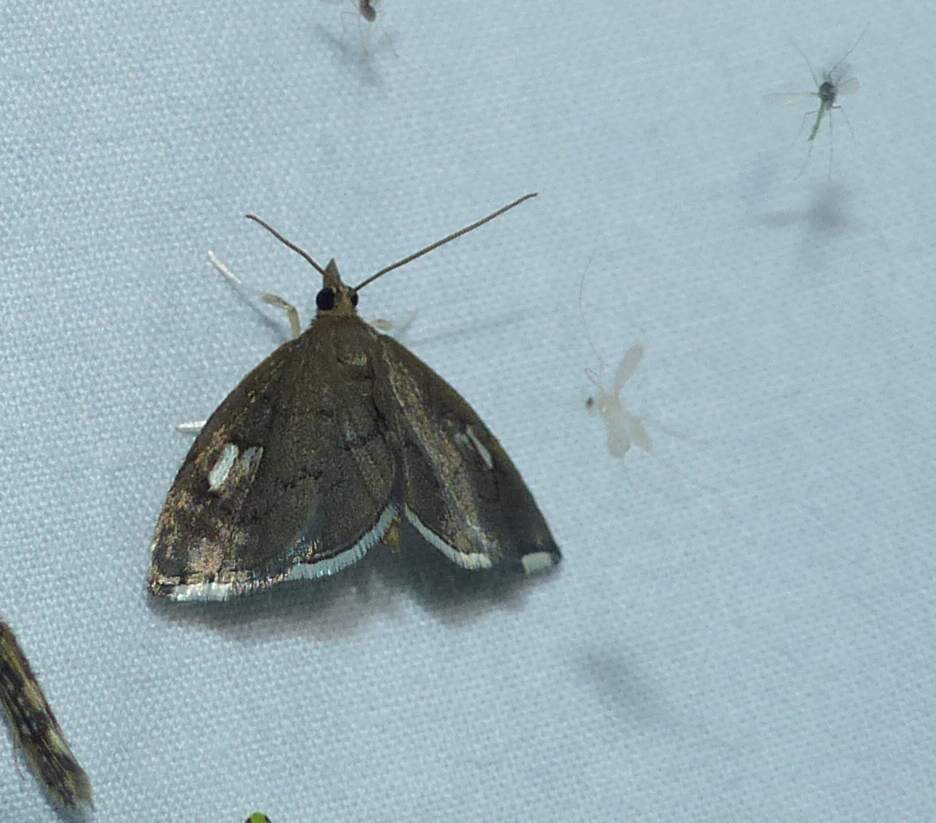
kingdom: Animalia
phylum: Arthropoda
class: Insecta
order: Lepidoptera
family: Crambidae
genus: Perispasta
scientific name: Perispasta caeculalis
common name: Titian peale's moth
